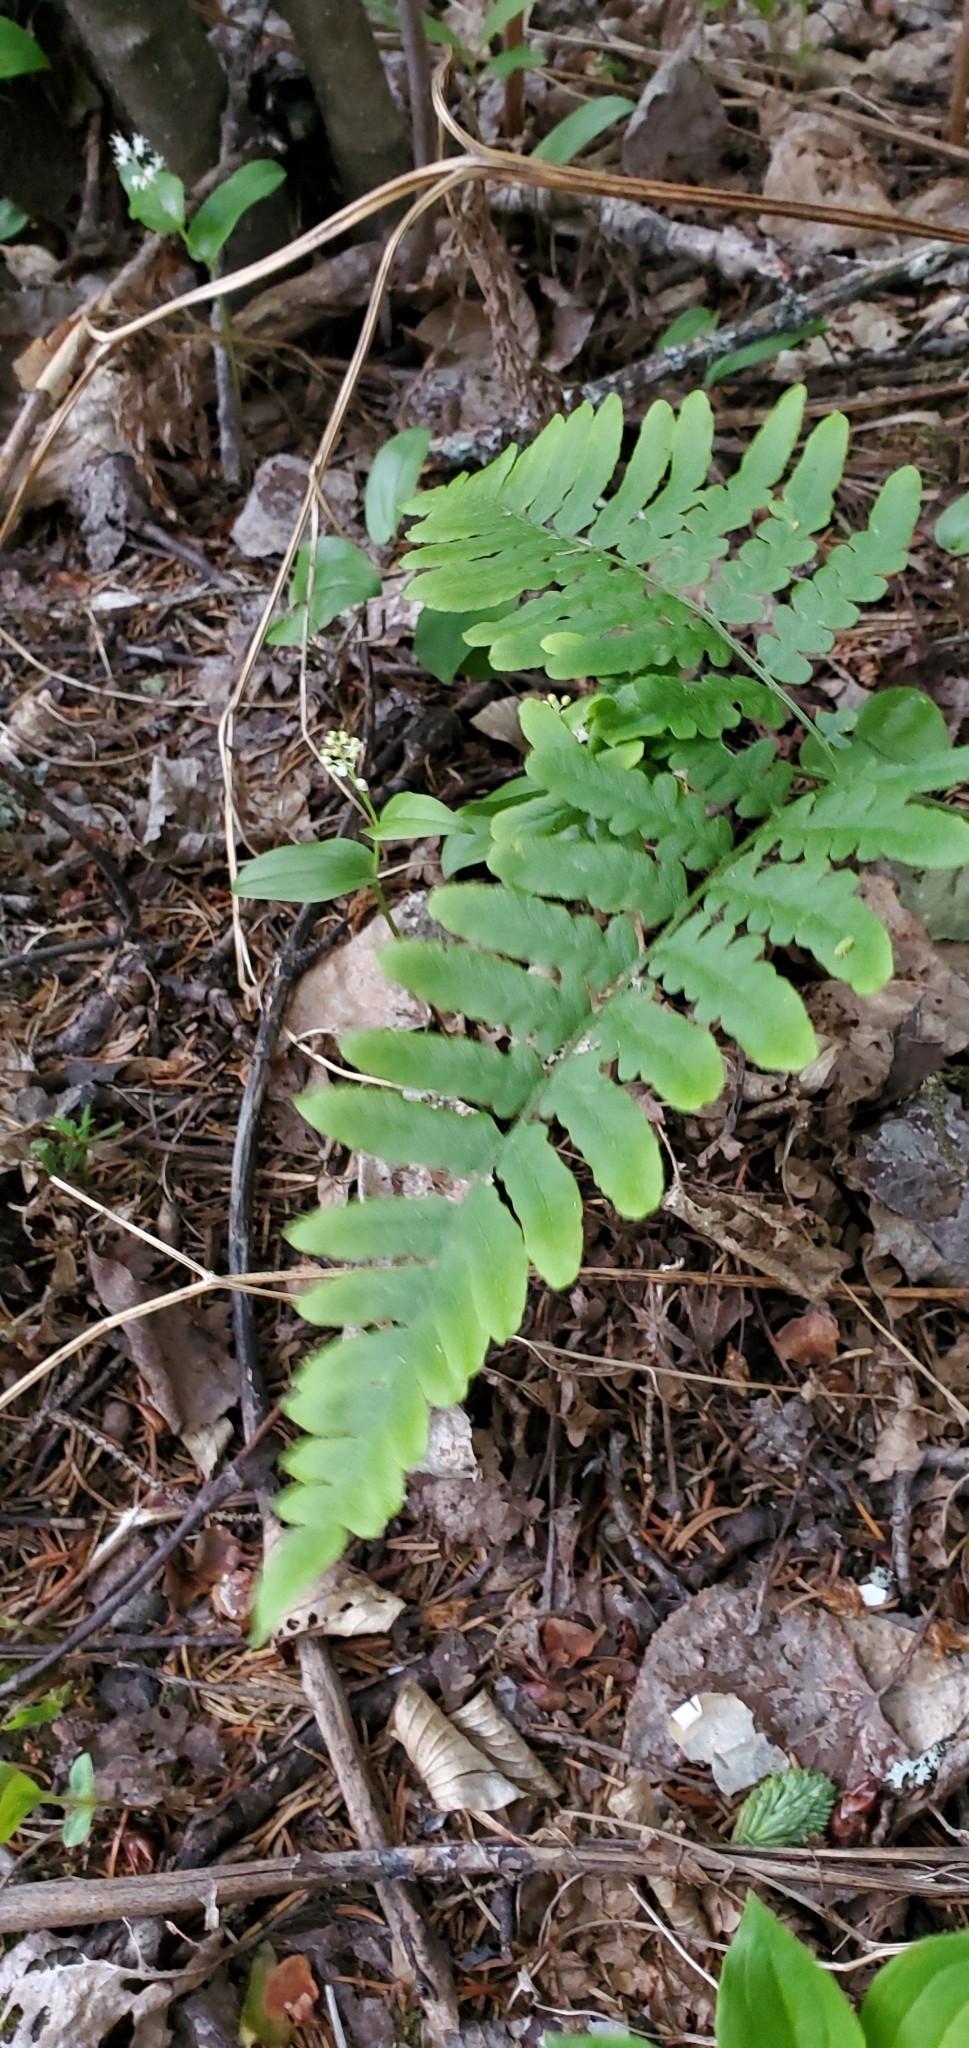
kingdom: Plantae
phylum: Tracheophyta
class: Polypodiopsida
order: Polypodiales
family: Dennstaedtiaceae
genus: Pteridium
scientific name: Pteridium aquilinum
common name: Bracken
